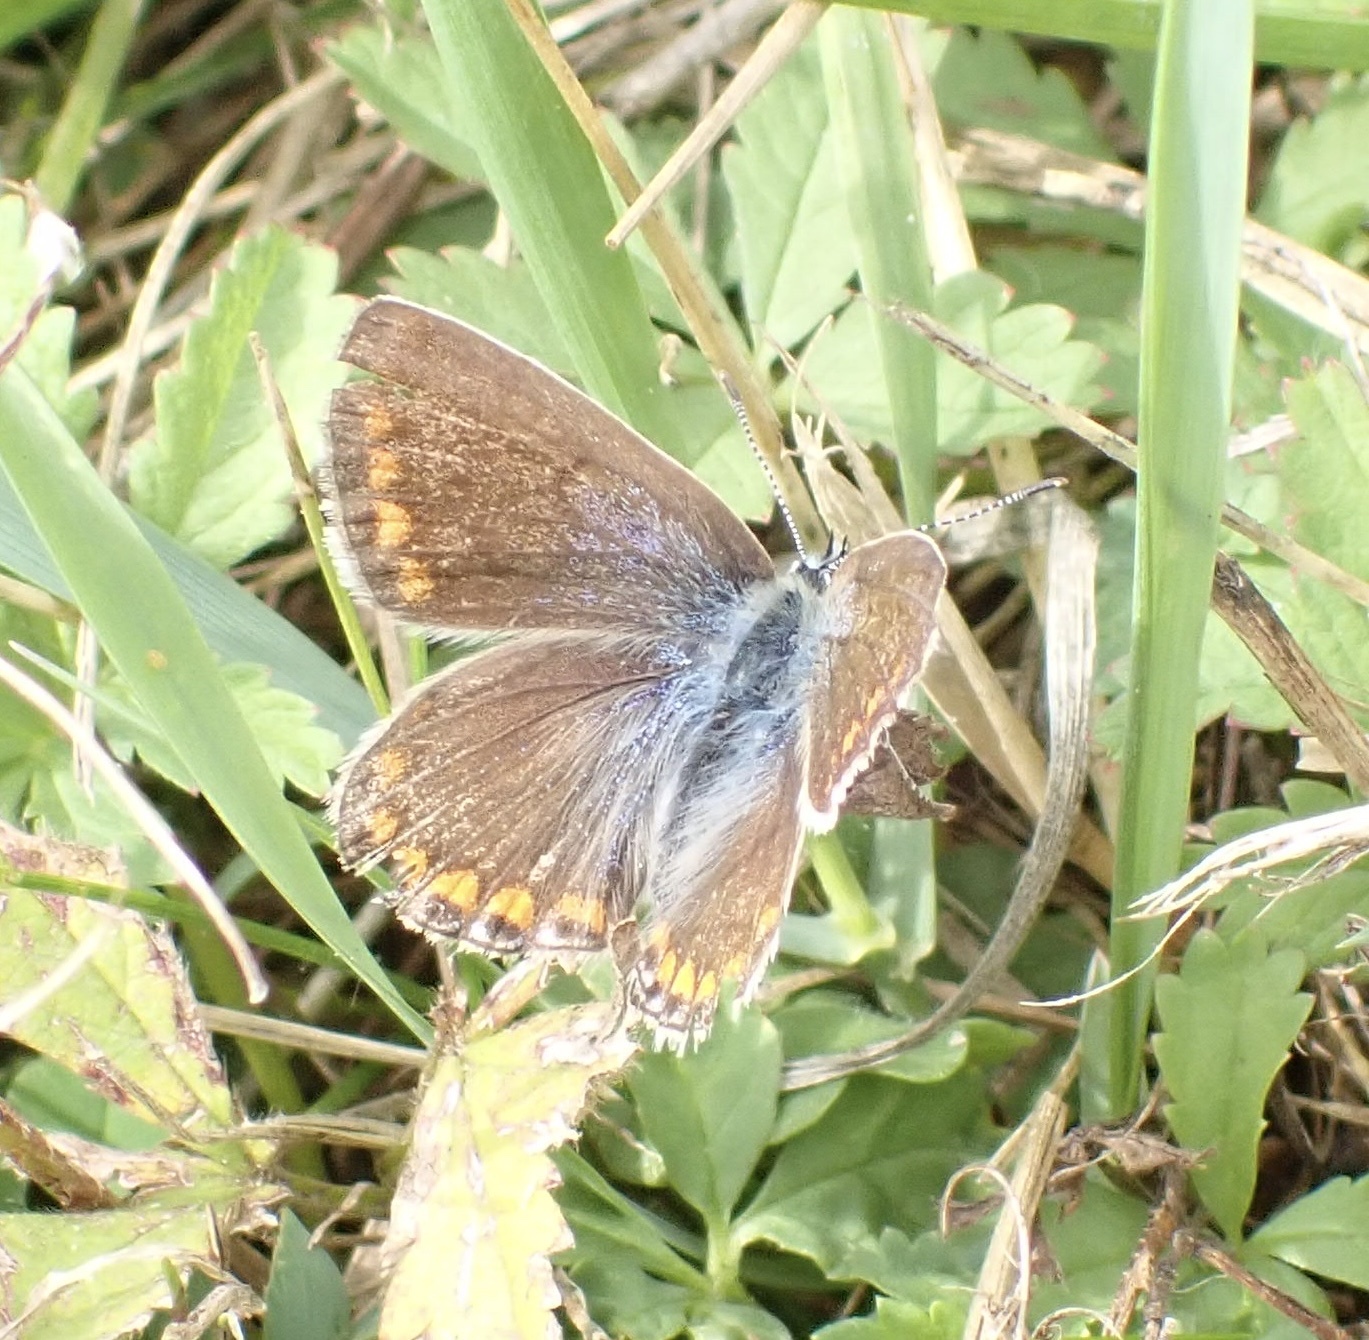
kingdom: Animalia
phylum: Arthropoda
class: Insecta
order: Lepidoptera
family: Lycaenidae
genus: Polyommatus
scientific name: Polyommatus icarus
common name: Common blue
